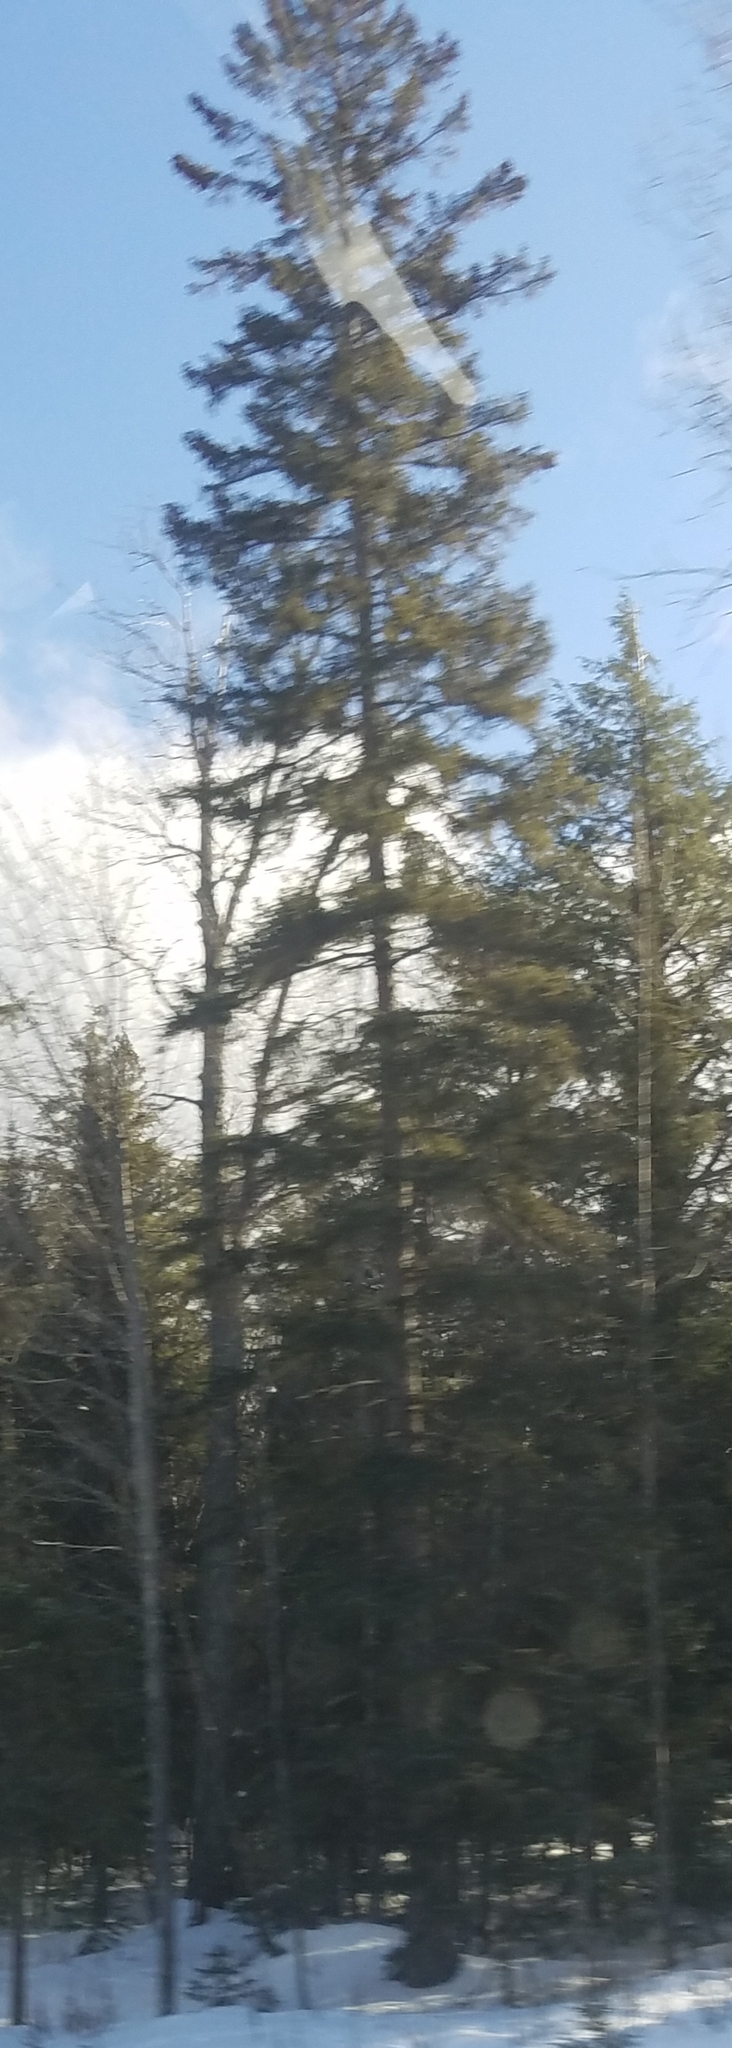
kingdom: Plantae
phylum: Tracheophyta
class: Pinopsida
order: Pinales
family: Pinaceae
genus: Pinus
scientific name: Pinus strobus
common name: Weymouth pine
